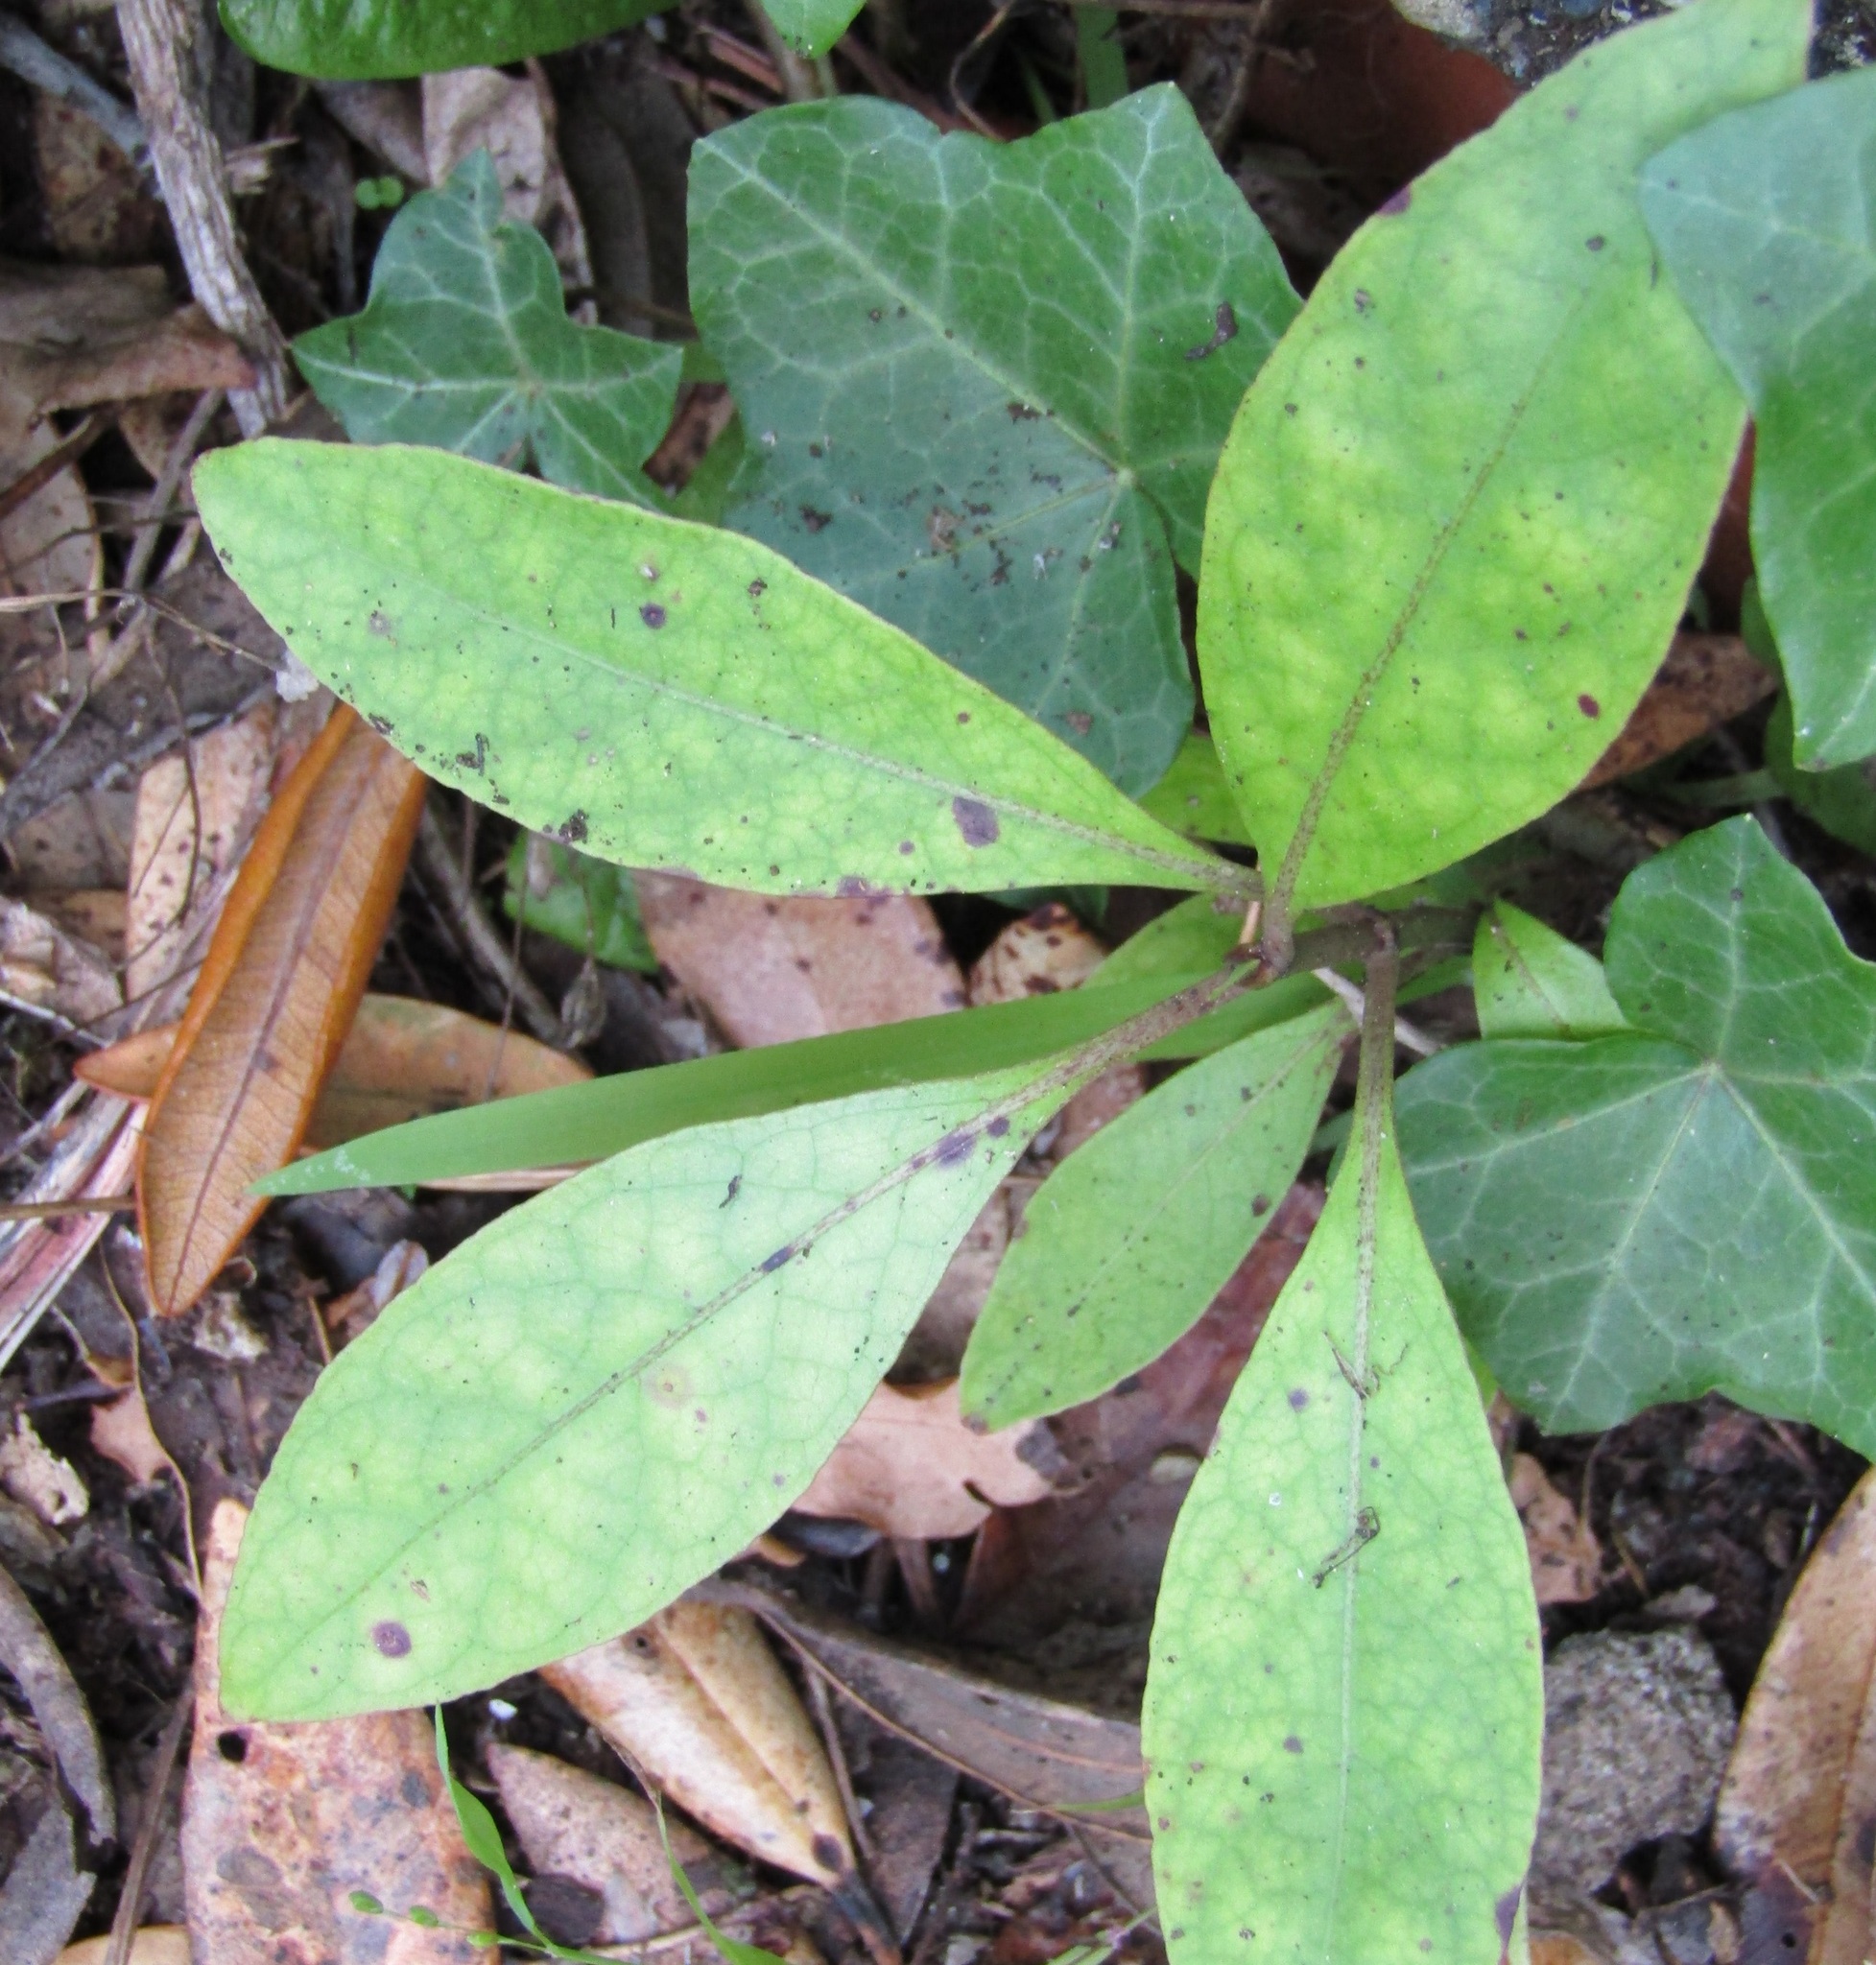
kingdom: Plantae
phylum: Tracheophyta
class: Magnoliopsida
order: Gentianales
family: Rubiaceae
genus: Coprosma
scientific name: Coprosma autumnalis
